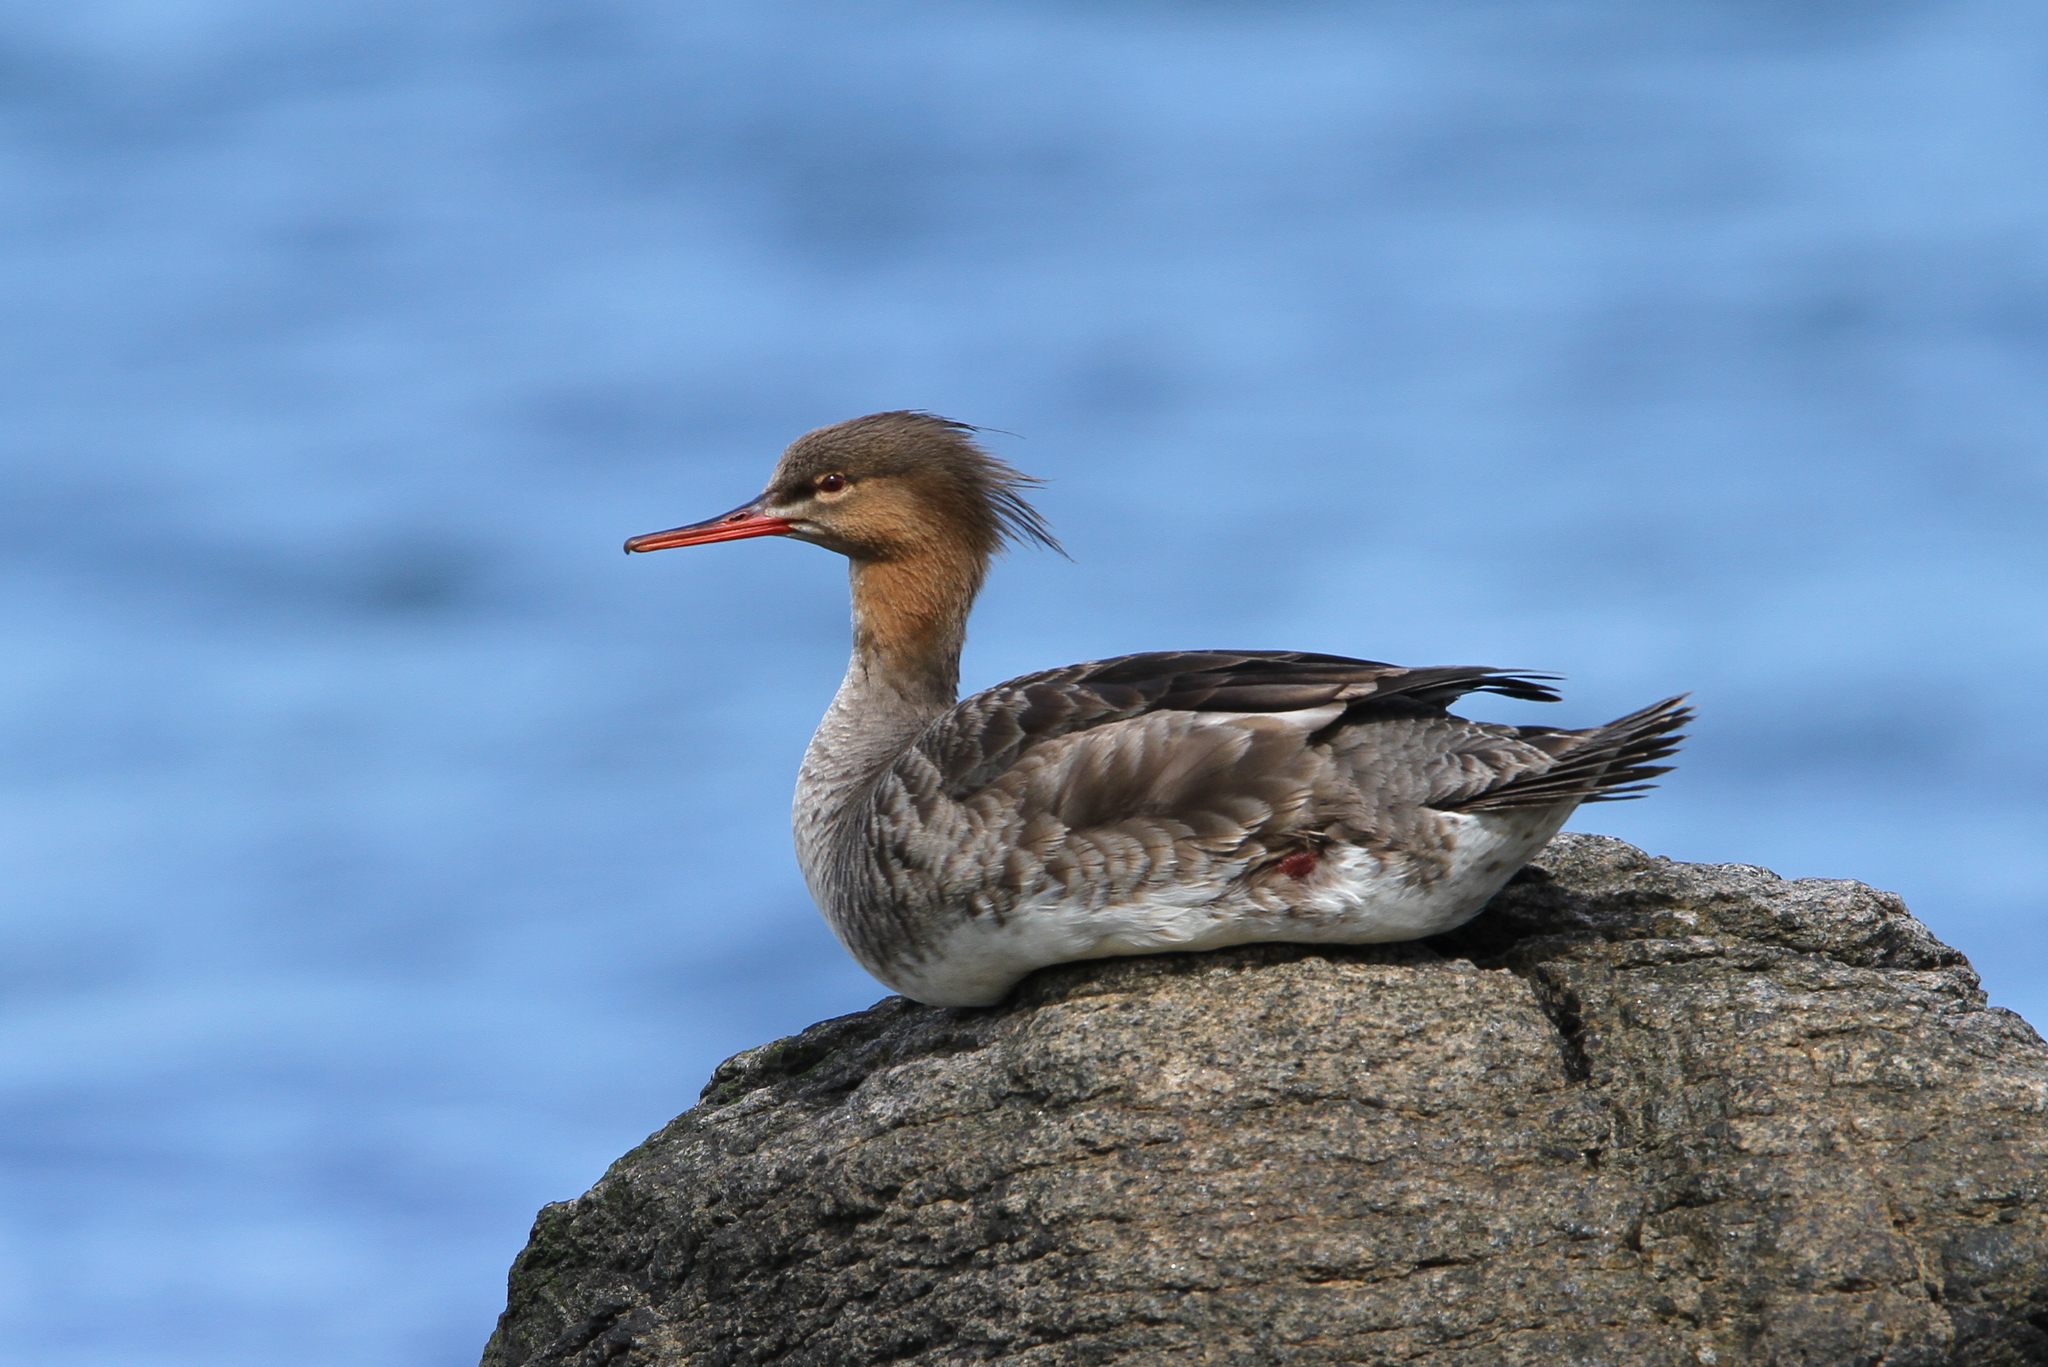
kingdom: Animalia
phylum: Chordata
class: Aves
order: Anseriformes
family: Anatidae
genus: Mergus
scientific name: Mergus serrator
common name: Red-breasted merganser
